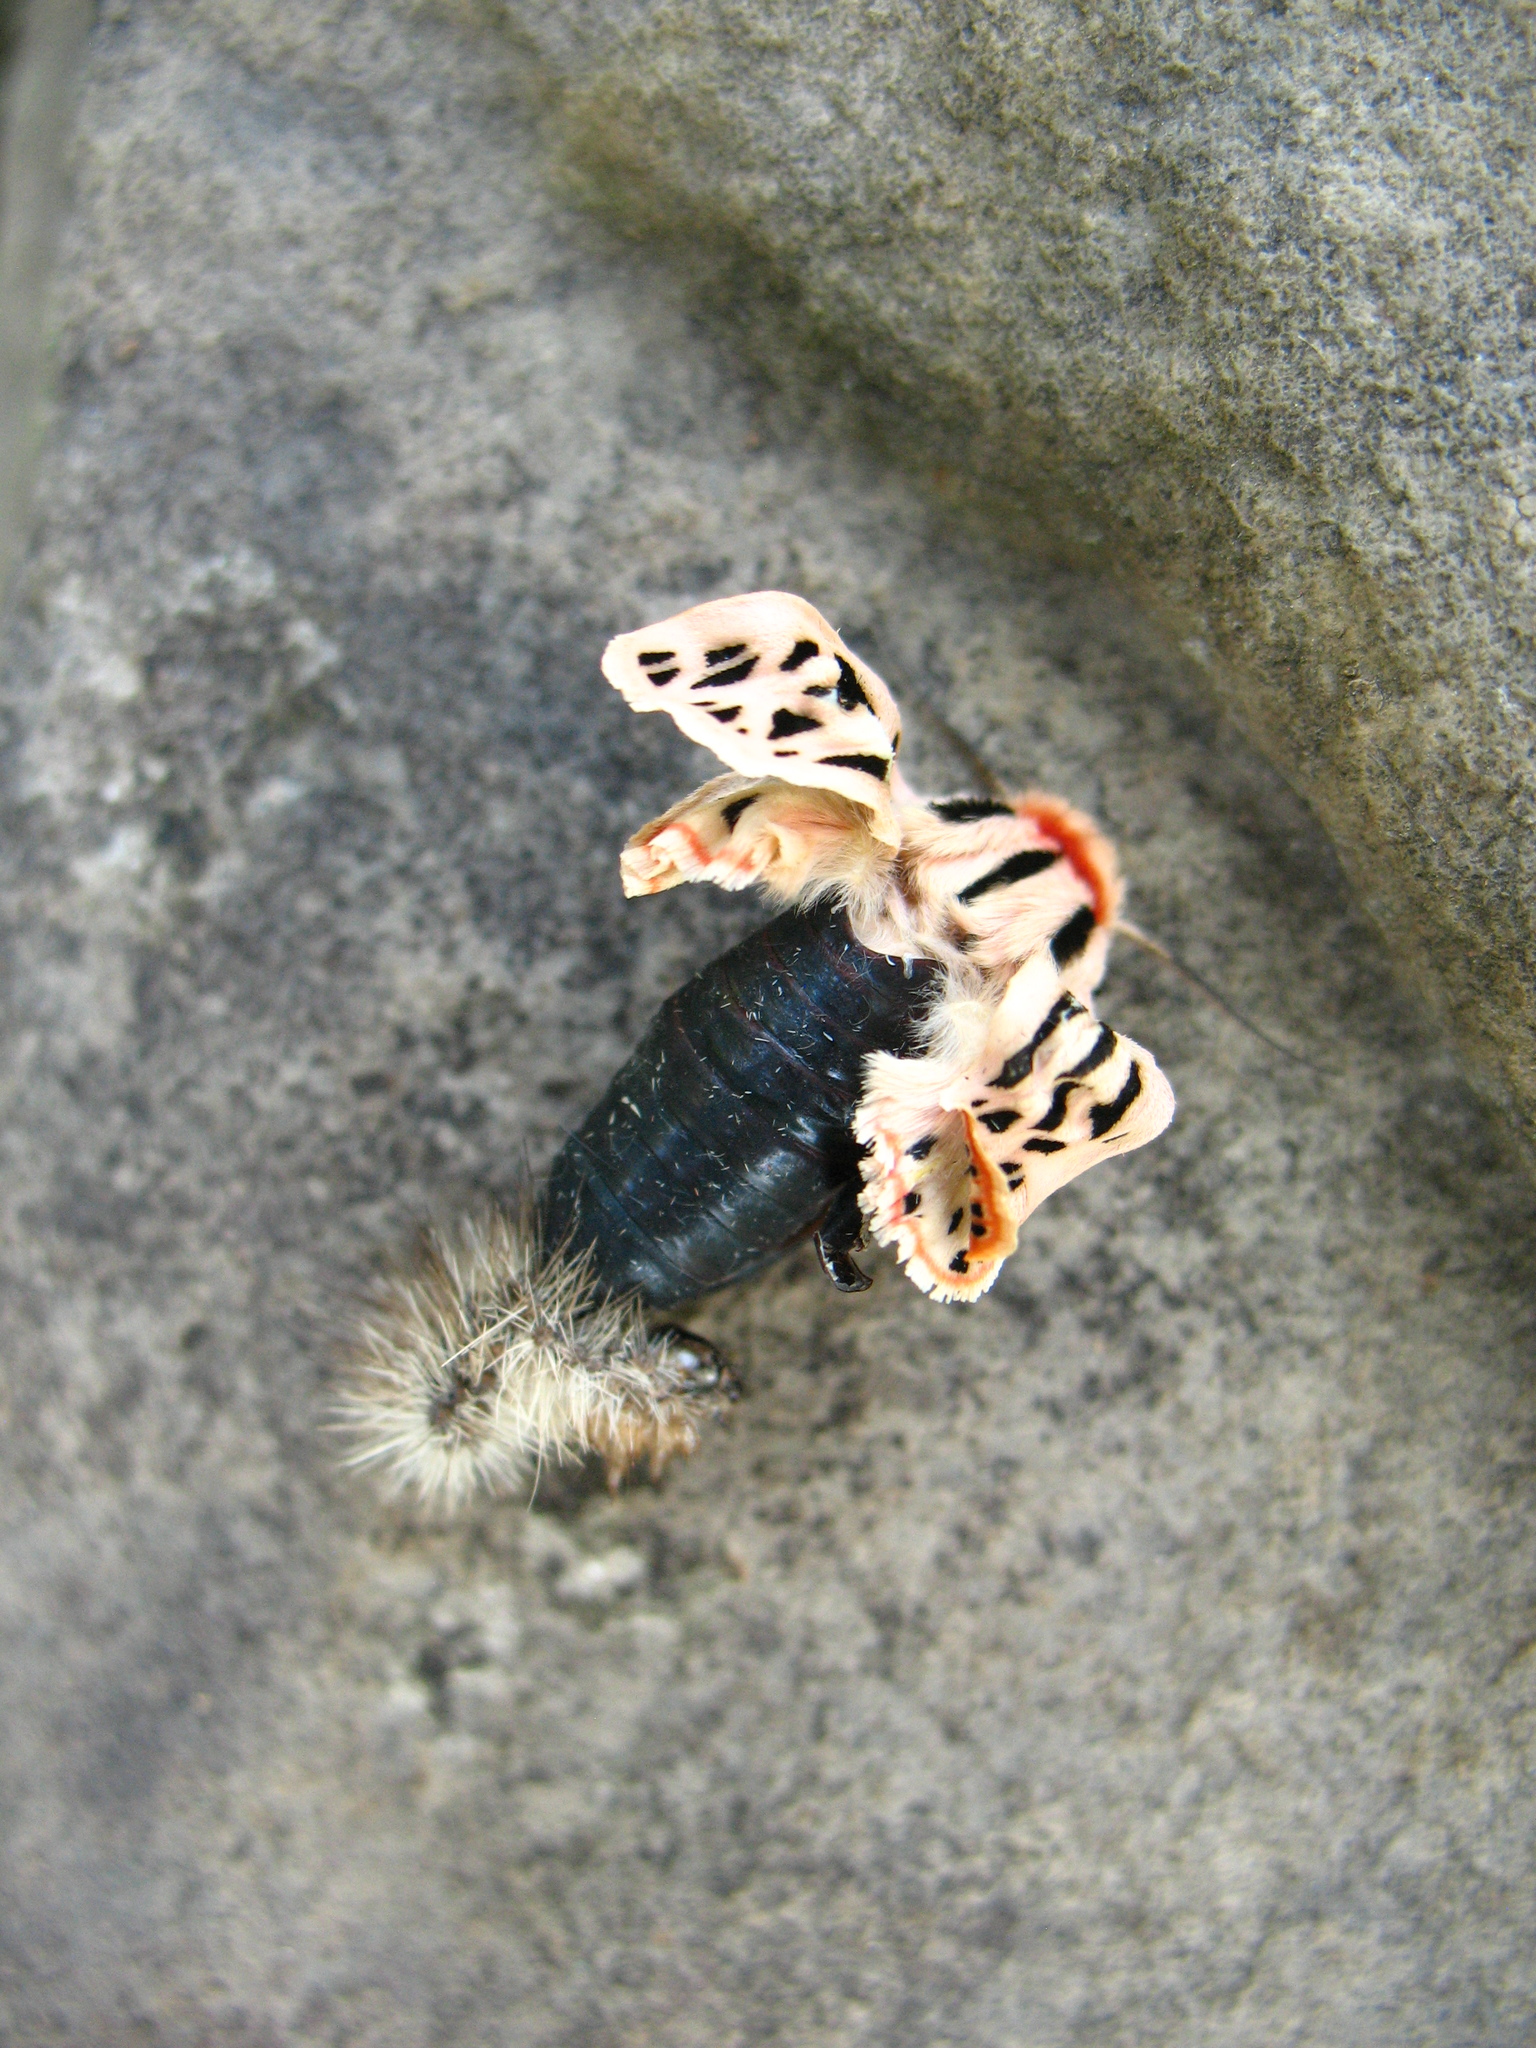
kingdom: Animalia
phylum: Arthropoda
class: Insecta
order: Lepidoptera
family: Erebidae
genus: Apantesis
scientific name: Apantesis arge
